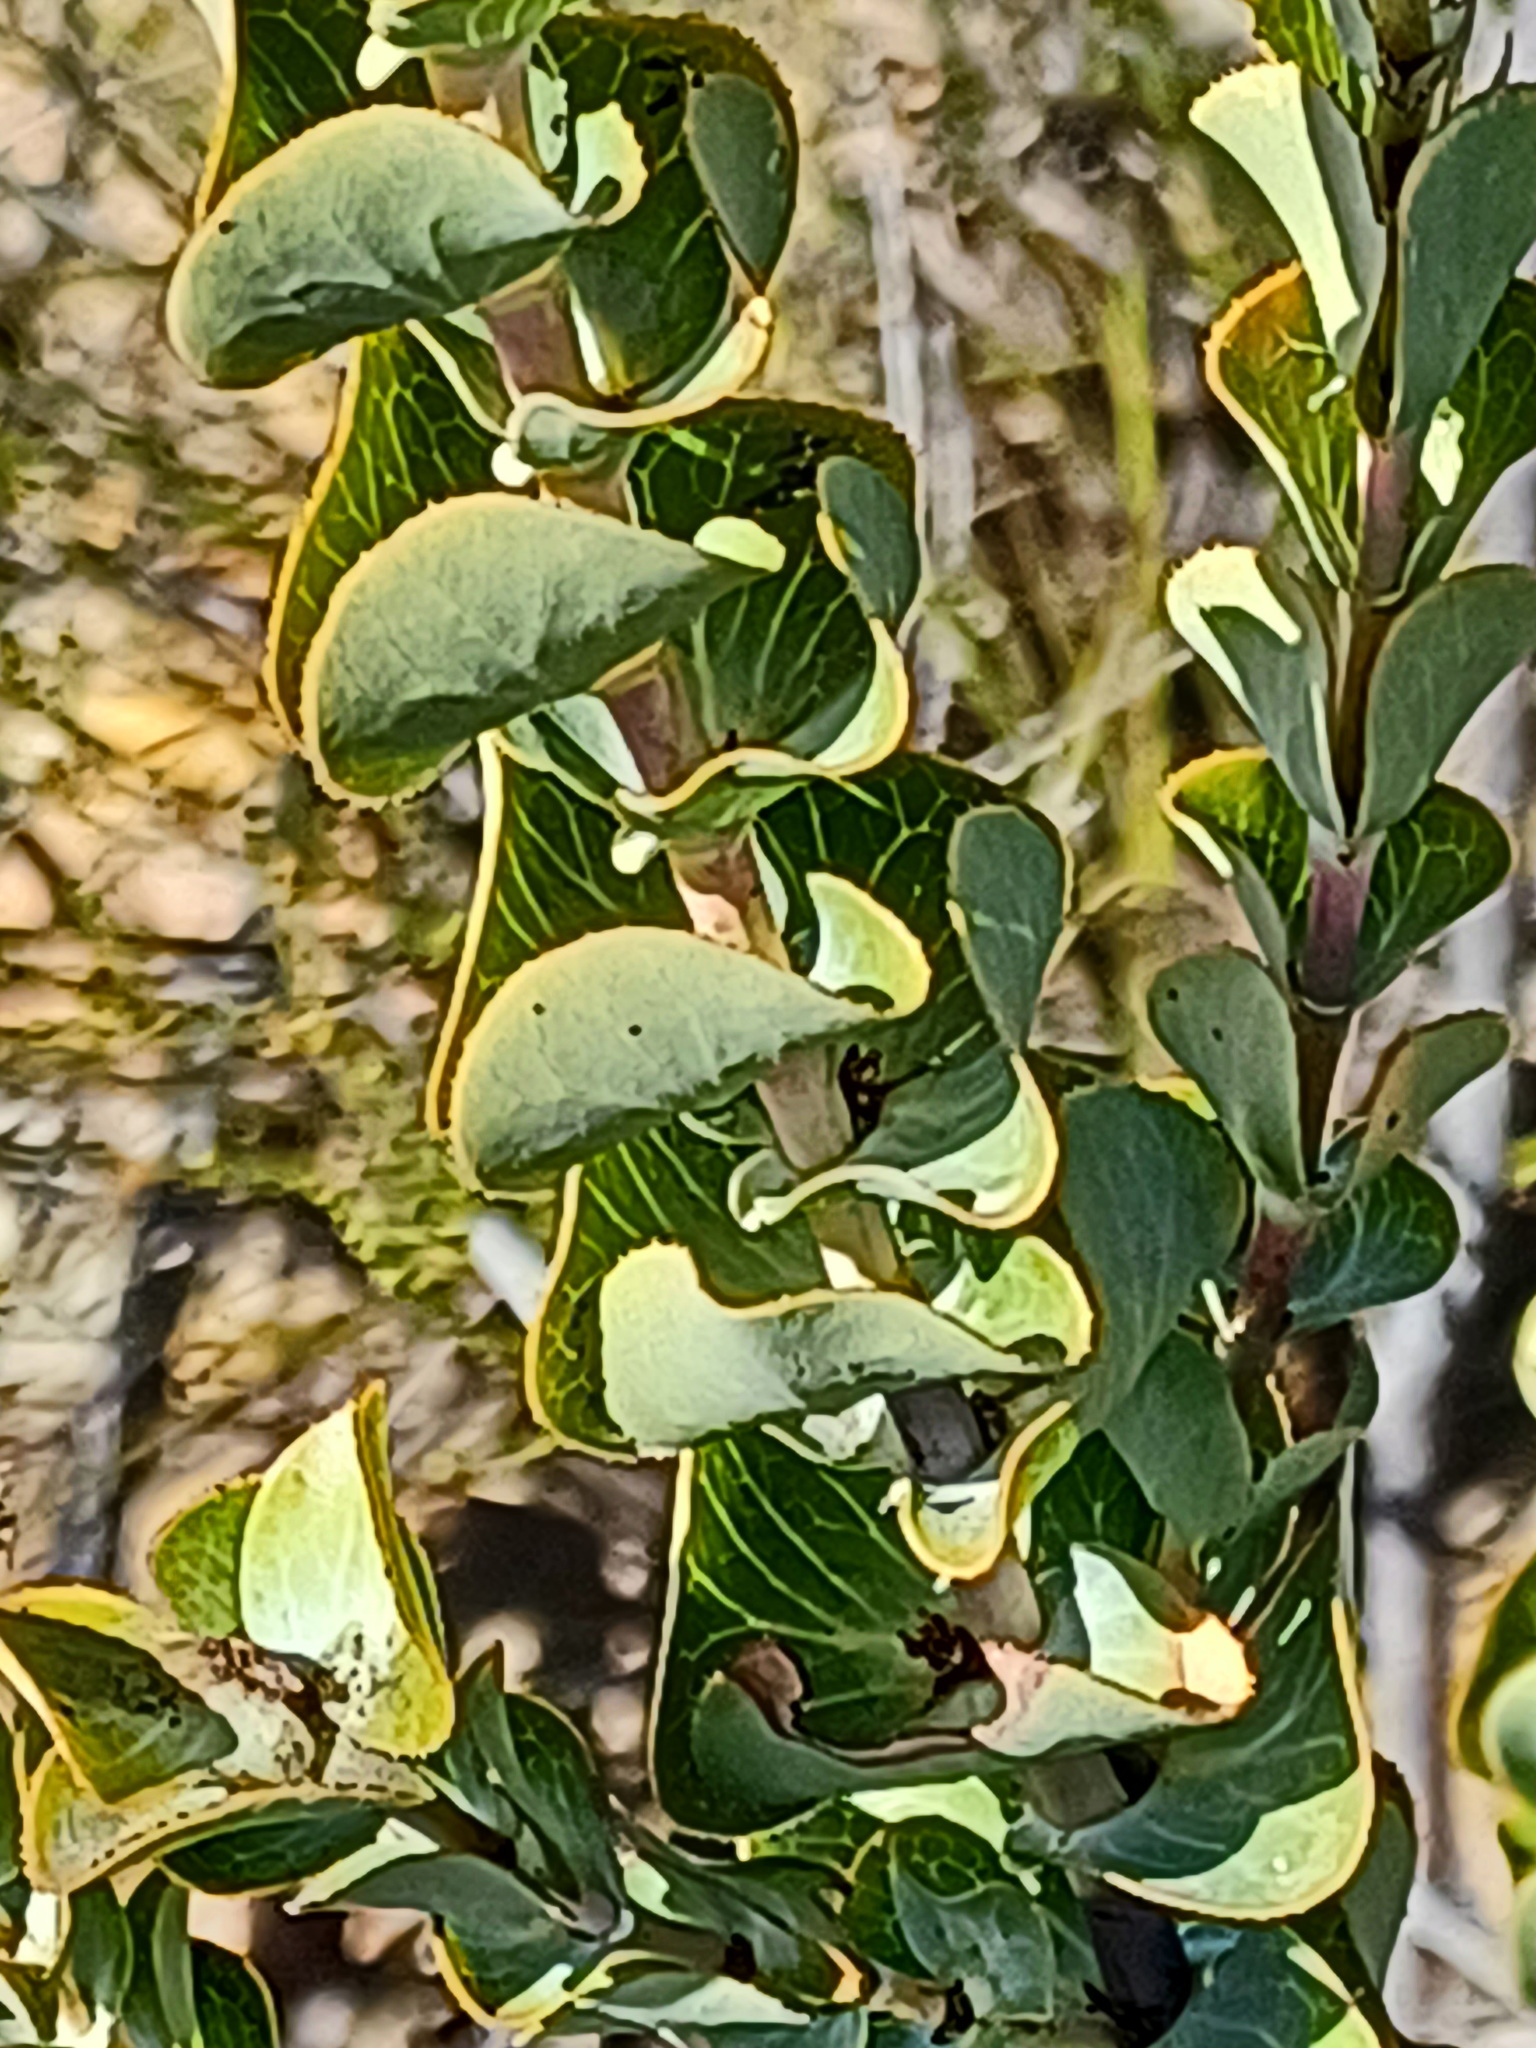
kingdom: Plantae
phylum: Tracheophyta
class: Magnoliopsida
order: Rosales
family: Rosaceae
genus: Cliffortia
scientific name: Cliffortia crenata
